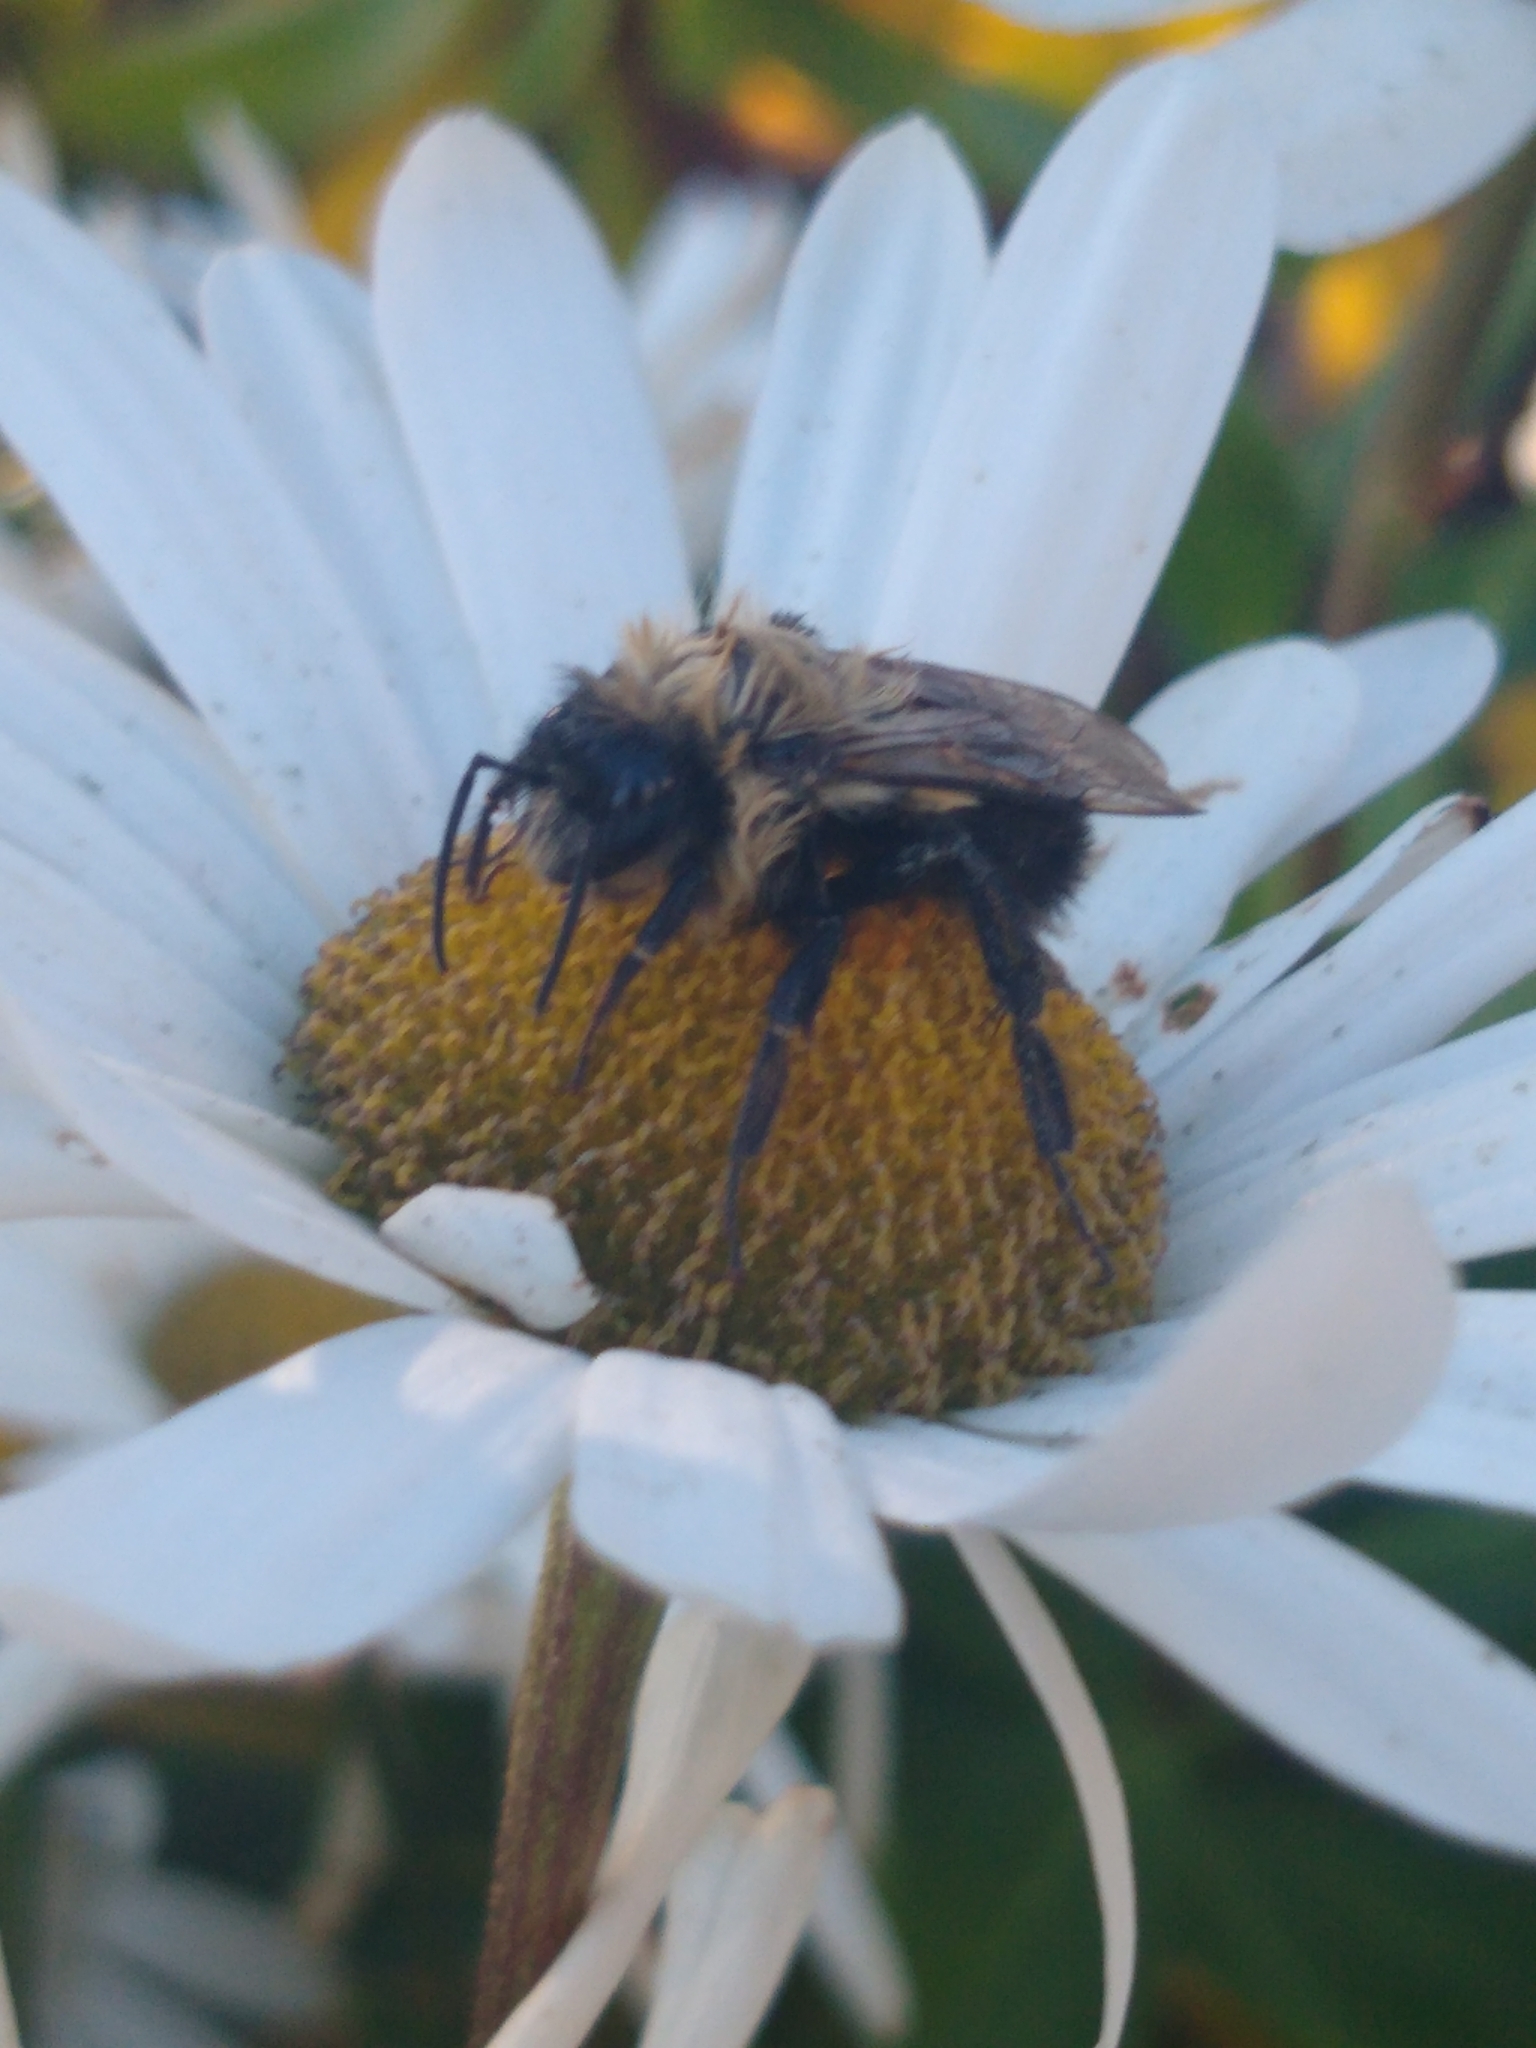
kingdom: Animalia
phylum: Arthropoda
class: Insecta
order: Hymenoptera
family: Apidae
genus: Bombus
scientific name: Bombus impatiens
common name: Common eastern bumble bee
